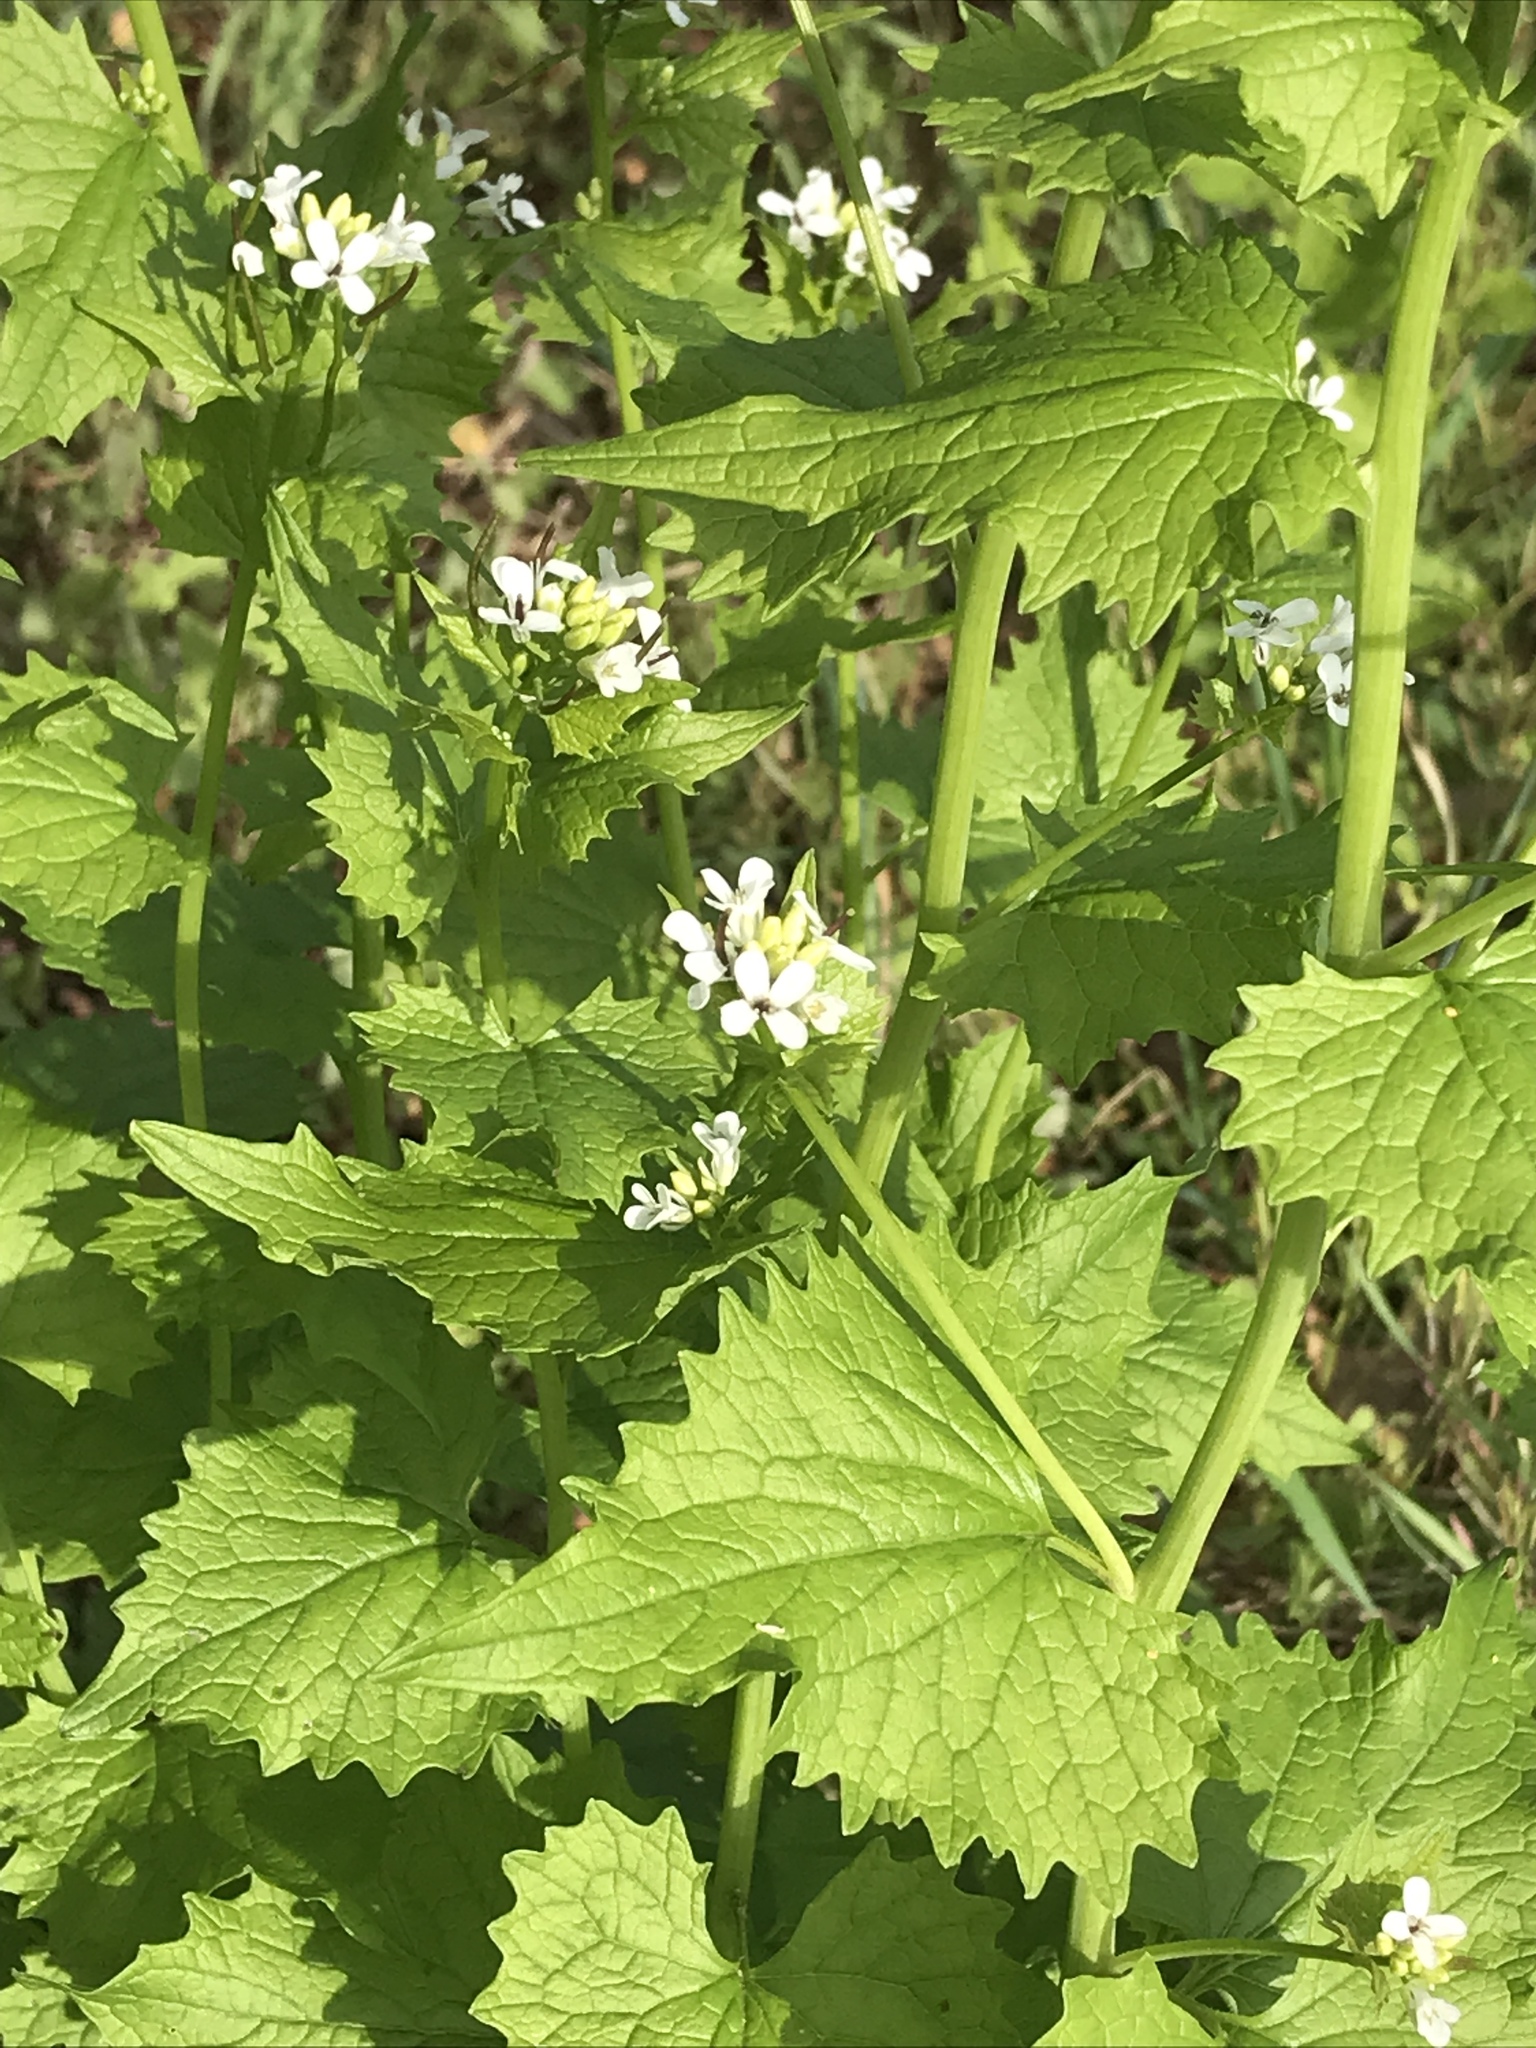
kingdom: Plantae
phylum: Tracheophyta
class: Magnoliopsida
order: Brassicales
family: Brassicaceae
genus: Alliaria
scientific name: Alliaria petiolata
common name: Garlic mustard
